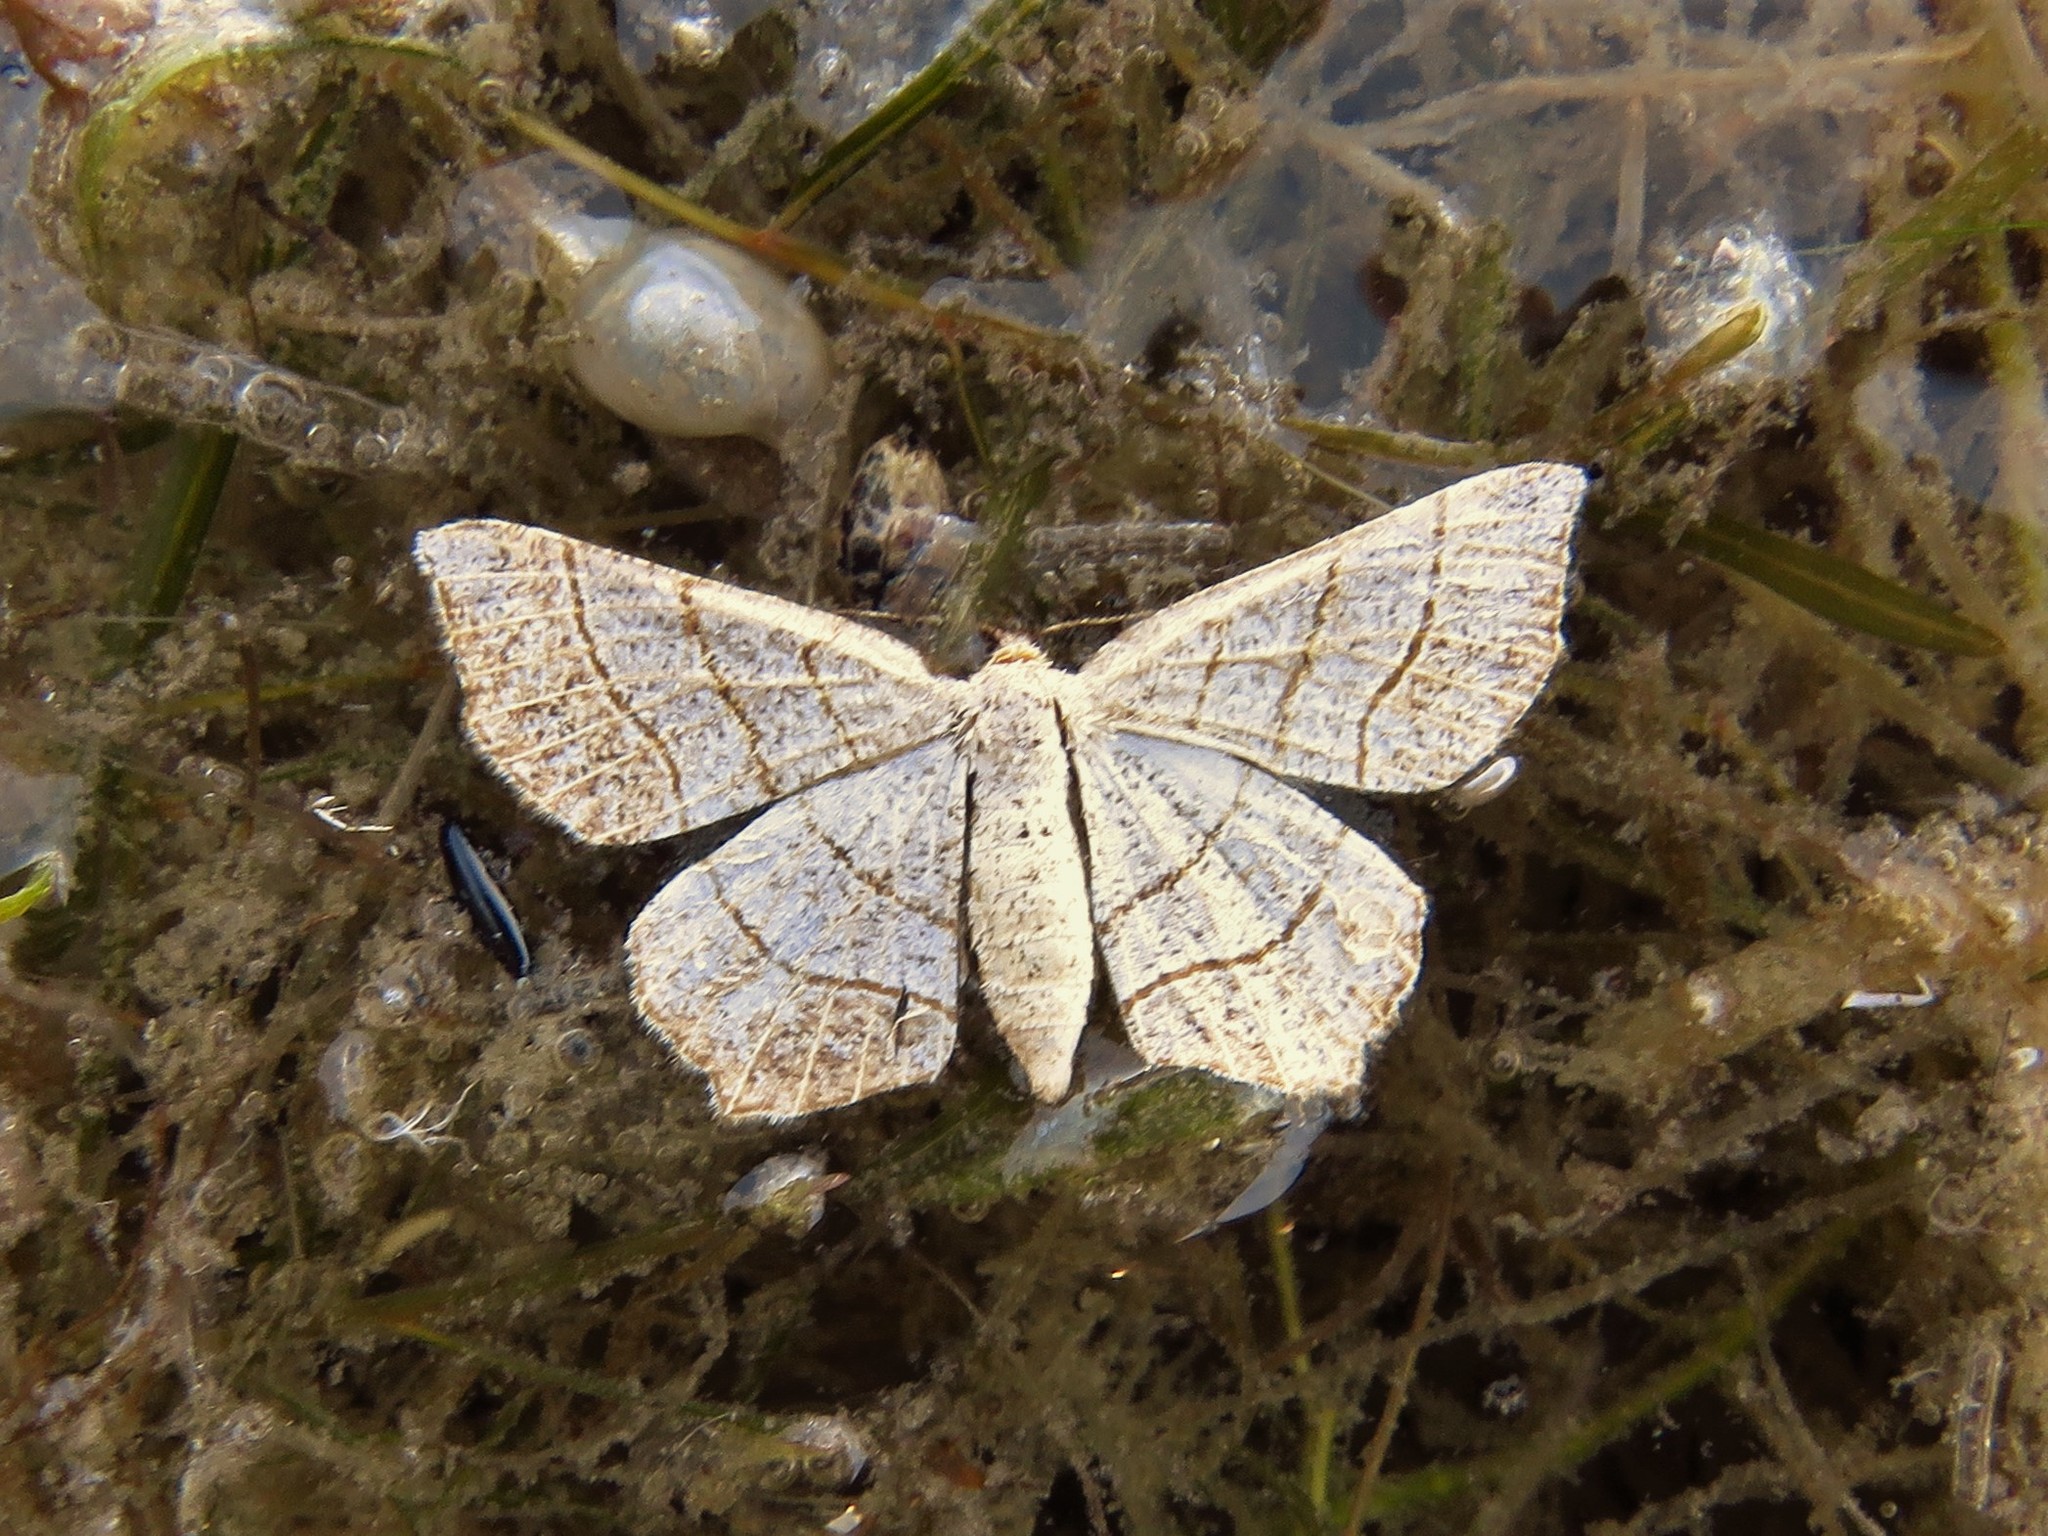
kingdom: Animalia
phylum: Arthropoda
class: Insecta
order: Lepidoptera
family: Geometridae
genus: Eumacaria
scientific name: Eumacaria madopata
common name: Brown-bordered geometer
